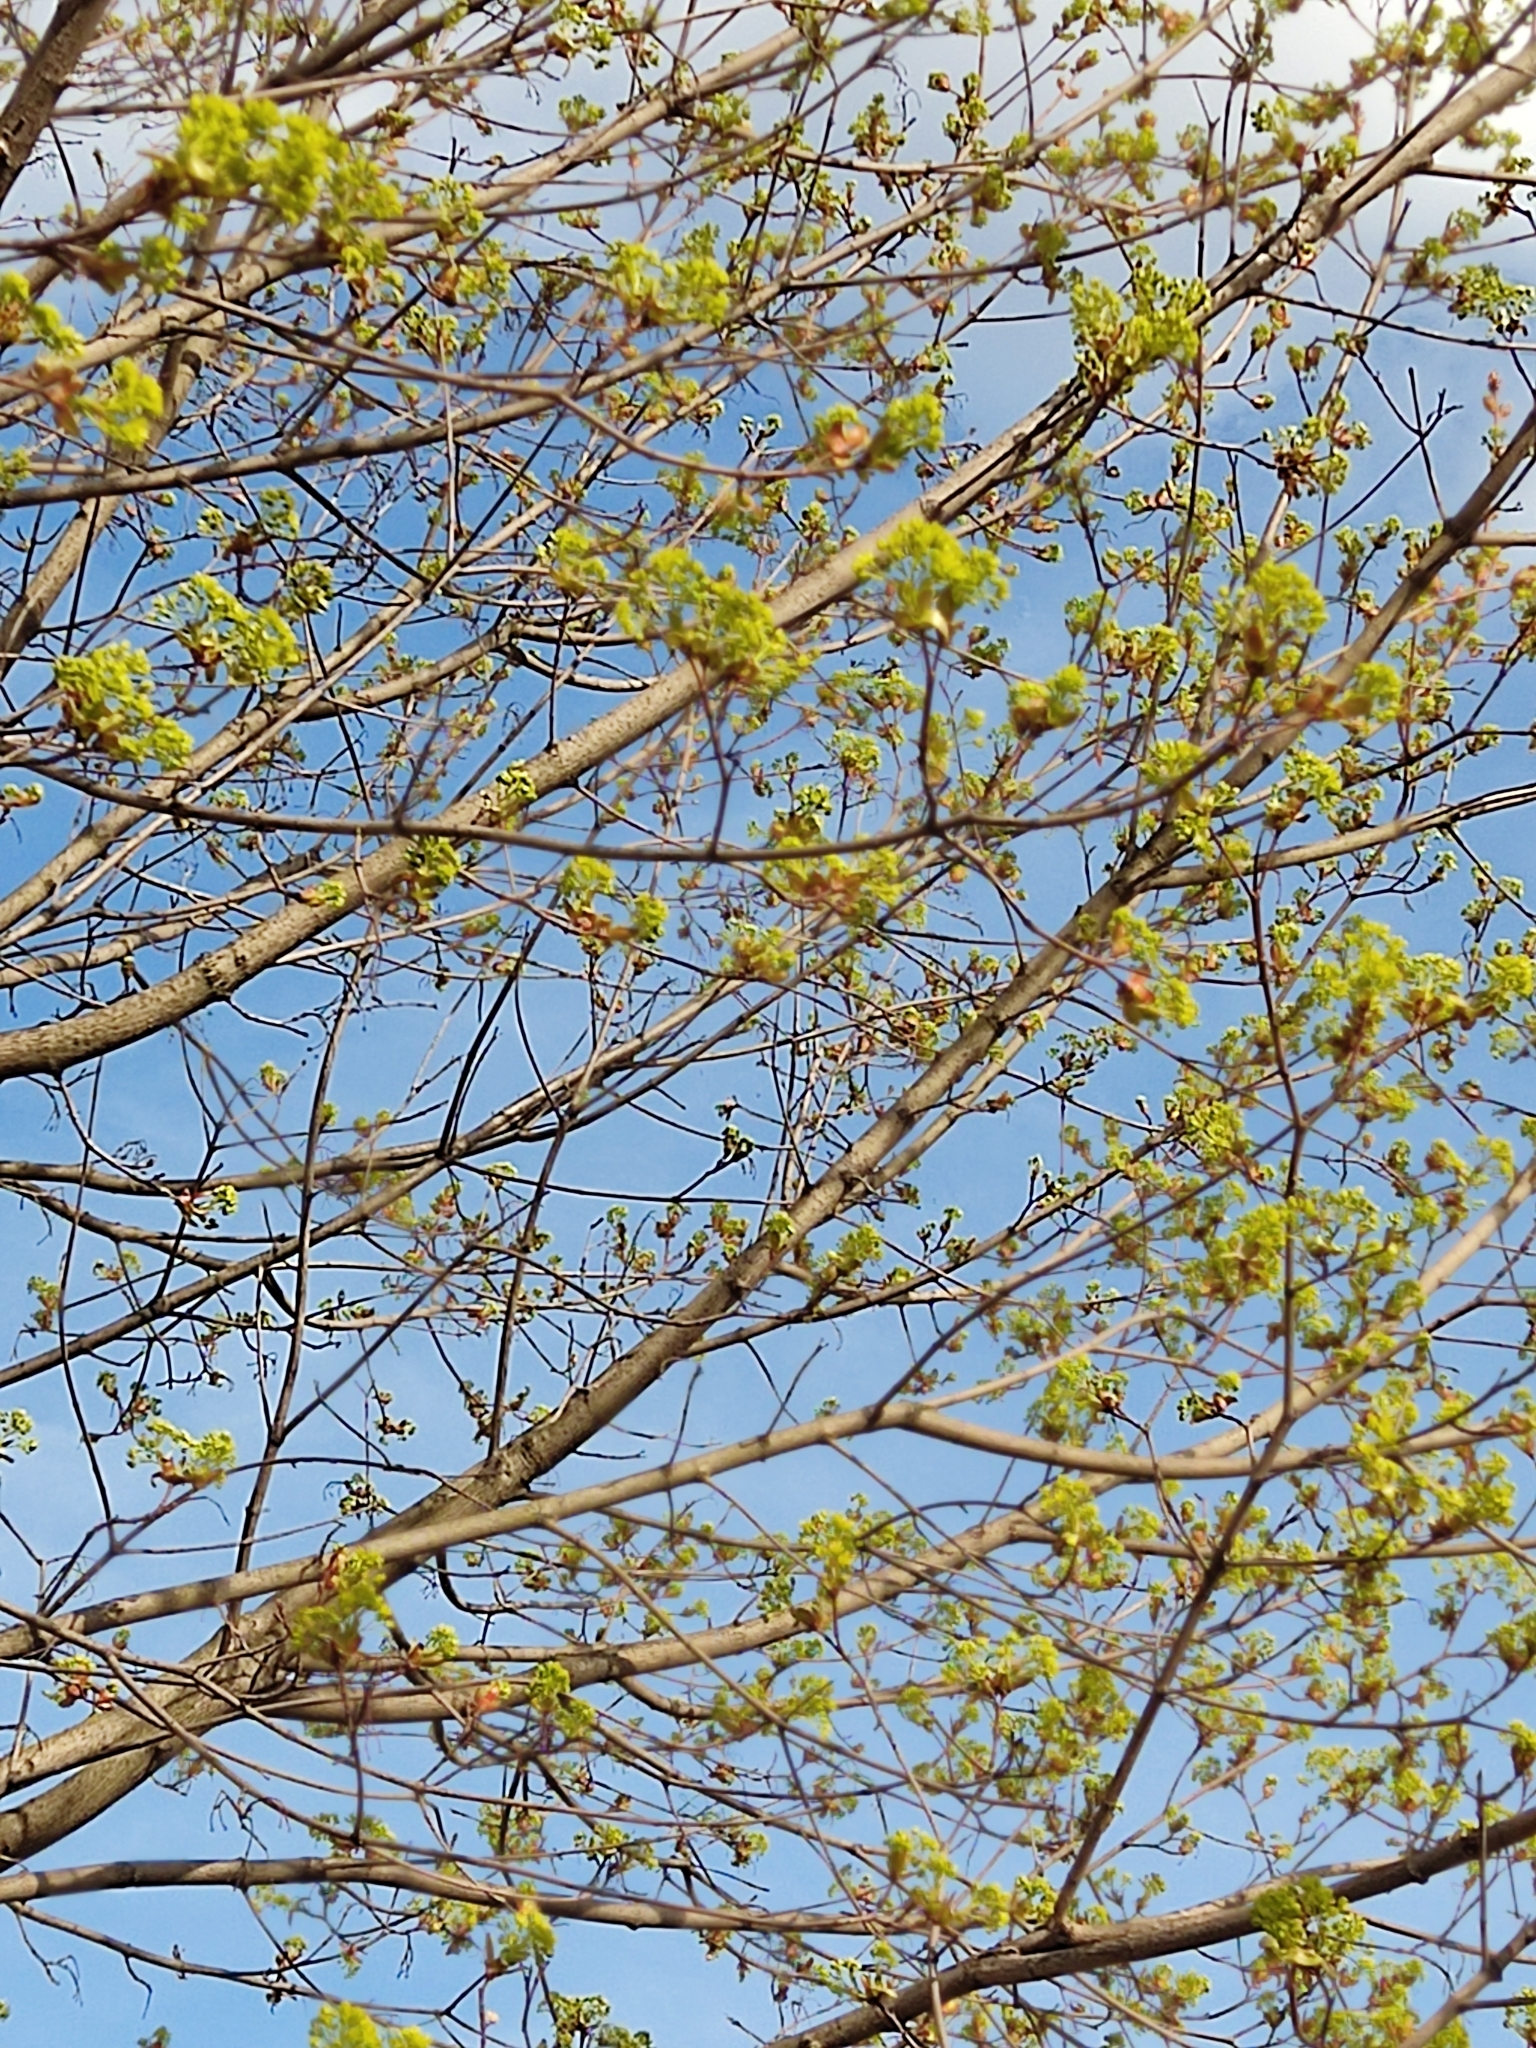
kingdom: Plantae
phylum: Tracheophyta
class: Magnoliopsida
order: Sapindales
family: Sapindaceae
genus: Acer
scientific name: Acer platanoides
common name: Norway maple
